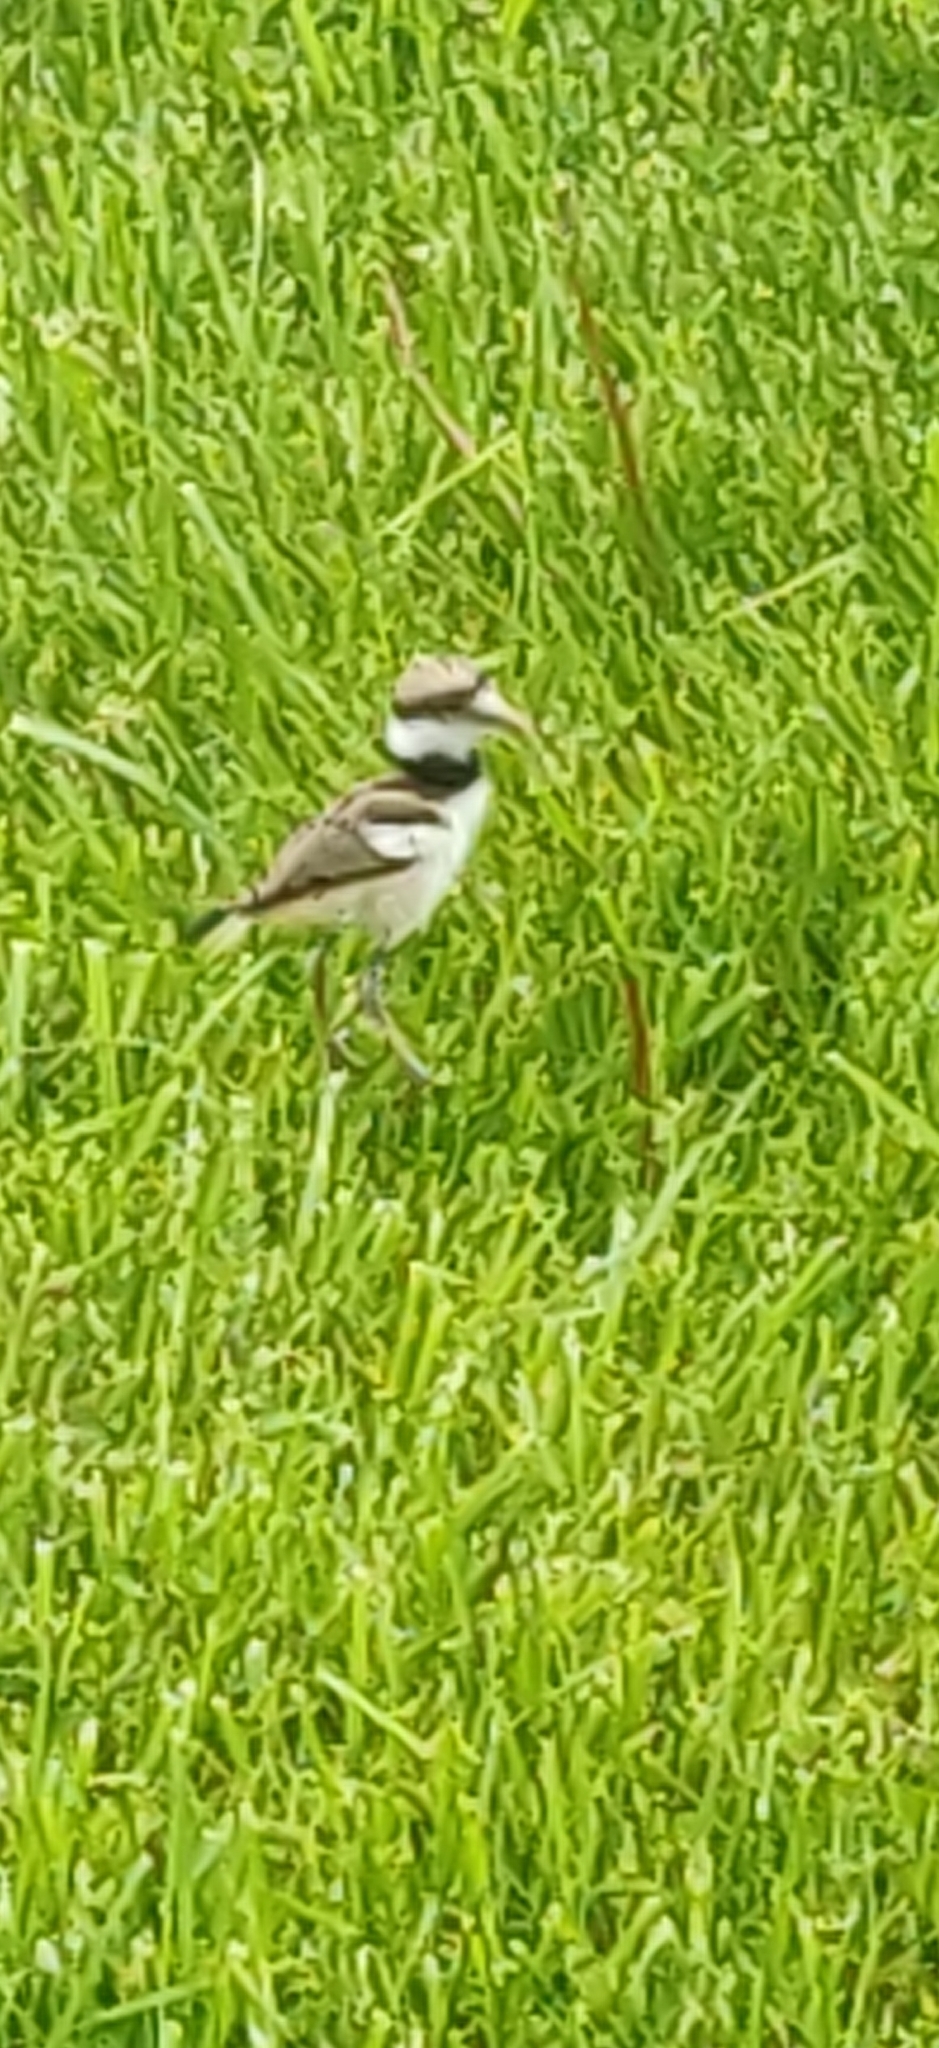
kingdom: Animalia
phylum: Chordata
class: Aves
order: Charadriiformes
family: Charadriidae
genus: Charadrius
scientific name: Charadrius vociferus
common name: Killdeer
